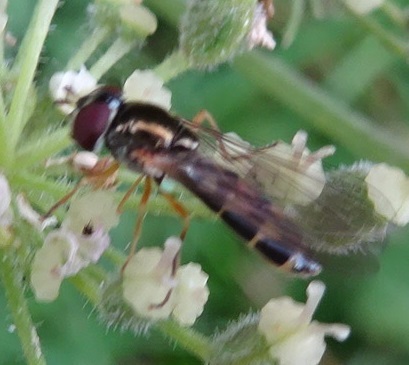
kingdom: Animalia
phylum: Arthropoda
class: Insecta
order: Diptera
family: Syrphidae
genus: Melanostoma
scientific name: Melanostoma scalare
